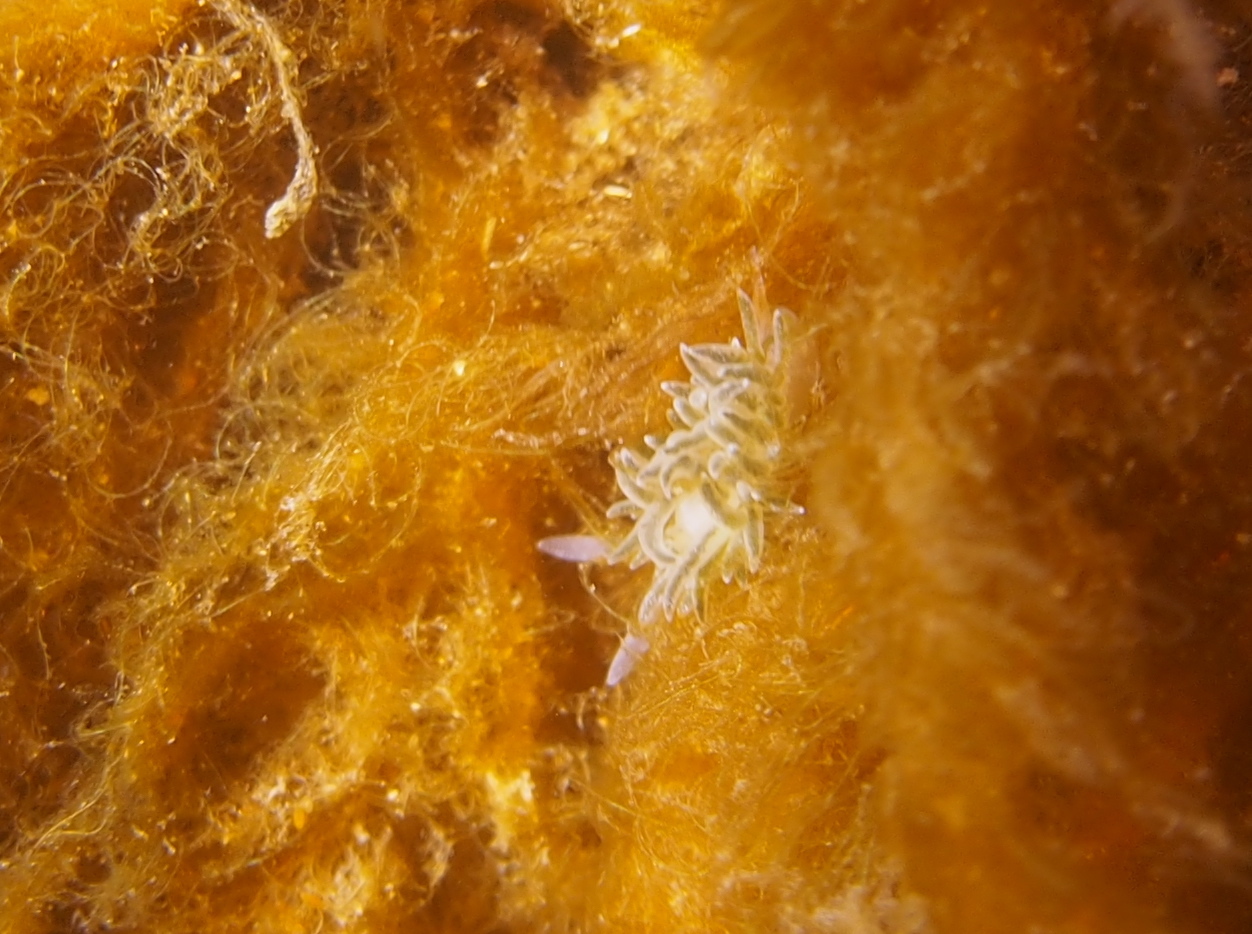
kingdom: Animalia
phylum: Mollusca
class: Gastropoda
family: Limapontiidae
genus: Placida
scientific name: Placida dendritica
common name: Dendritic nudibranch
